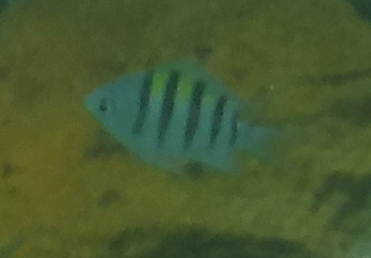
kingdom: Animalia
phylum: Chordata
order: Perciformes
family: Pomacentridae
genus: Abudefduf
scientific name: Abudefduf saxatilis
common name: Sergeant major
